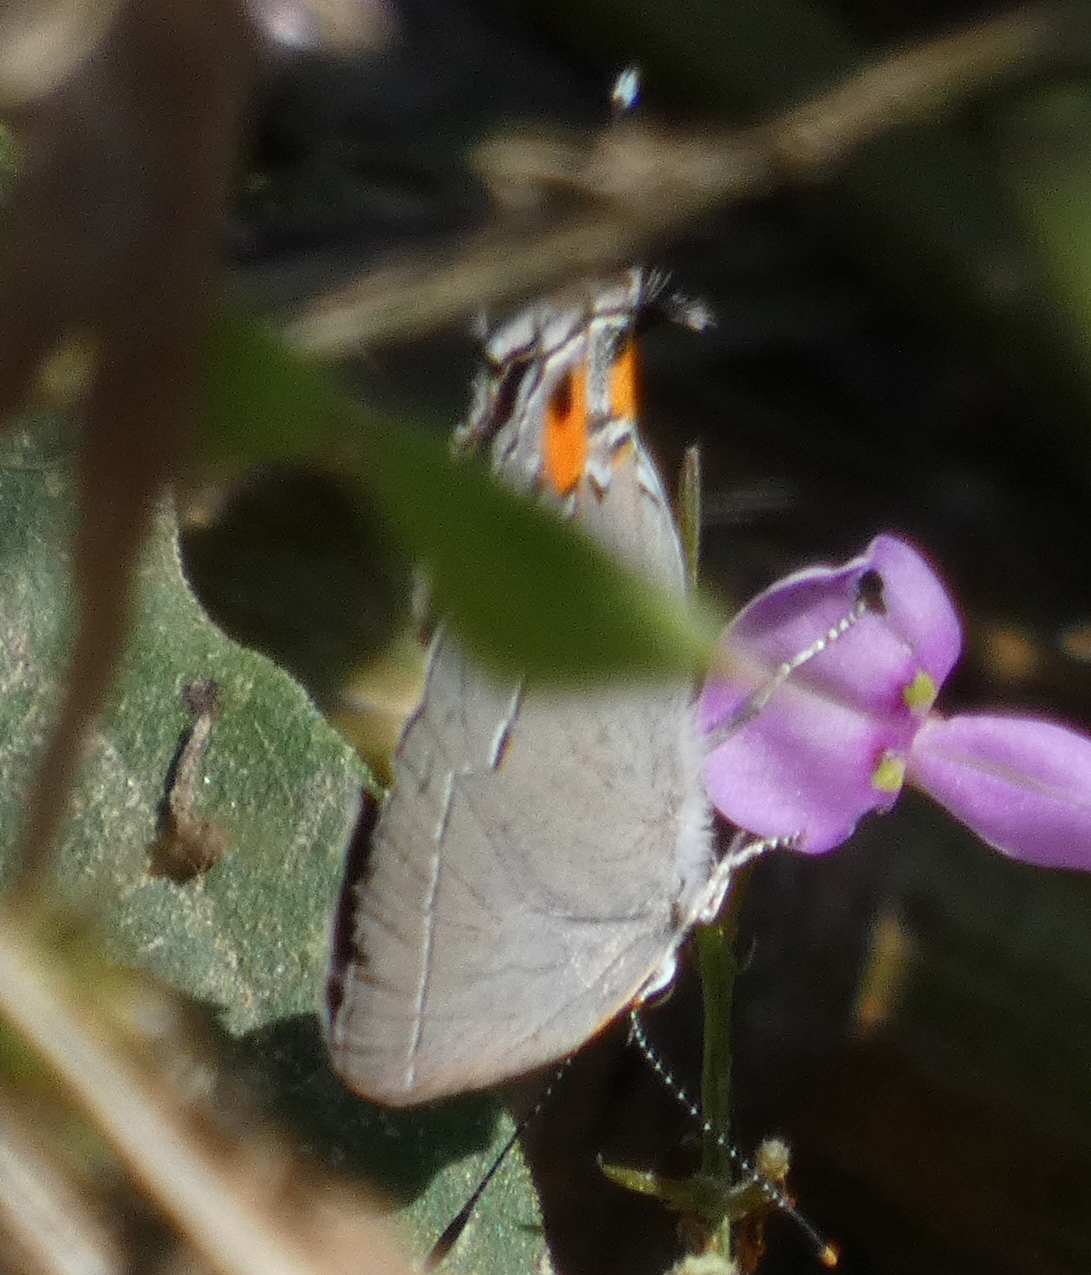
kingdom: Animalia
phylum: Arthropoda
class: Insecta
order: Lepidoptera
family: Lycaenidae
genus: Strymon
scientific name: Strymon melinus
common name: Gray hairstreak
